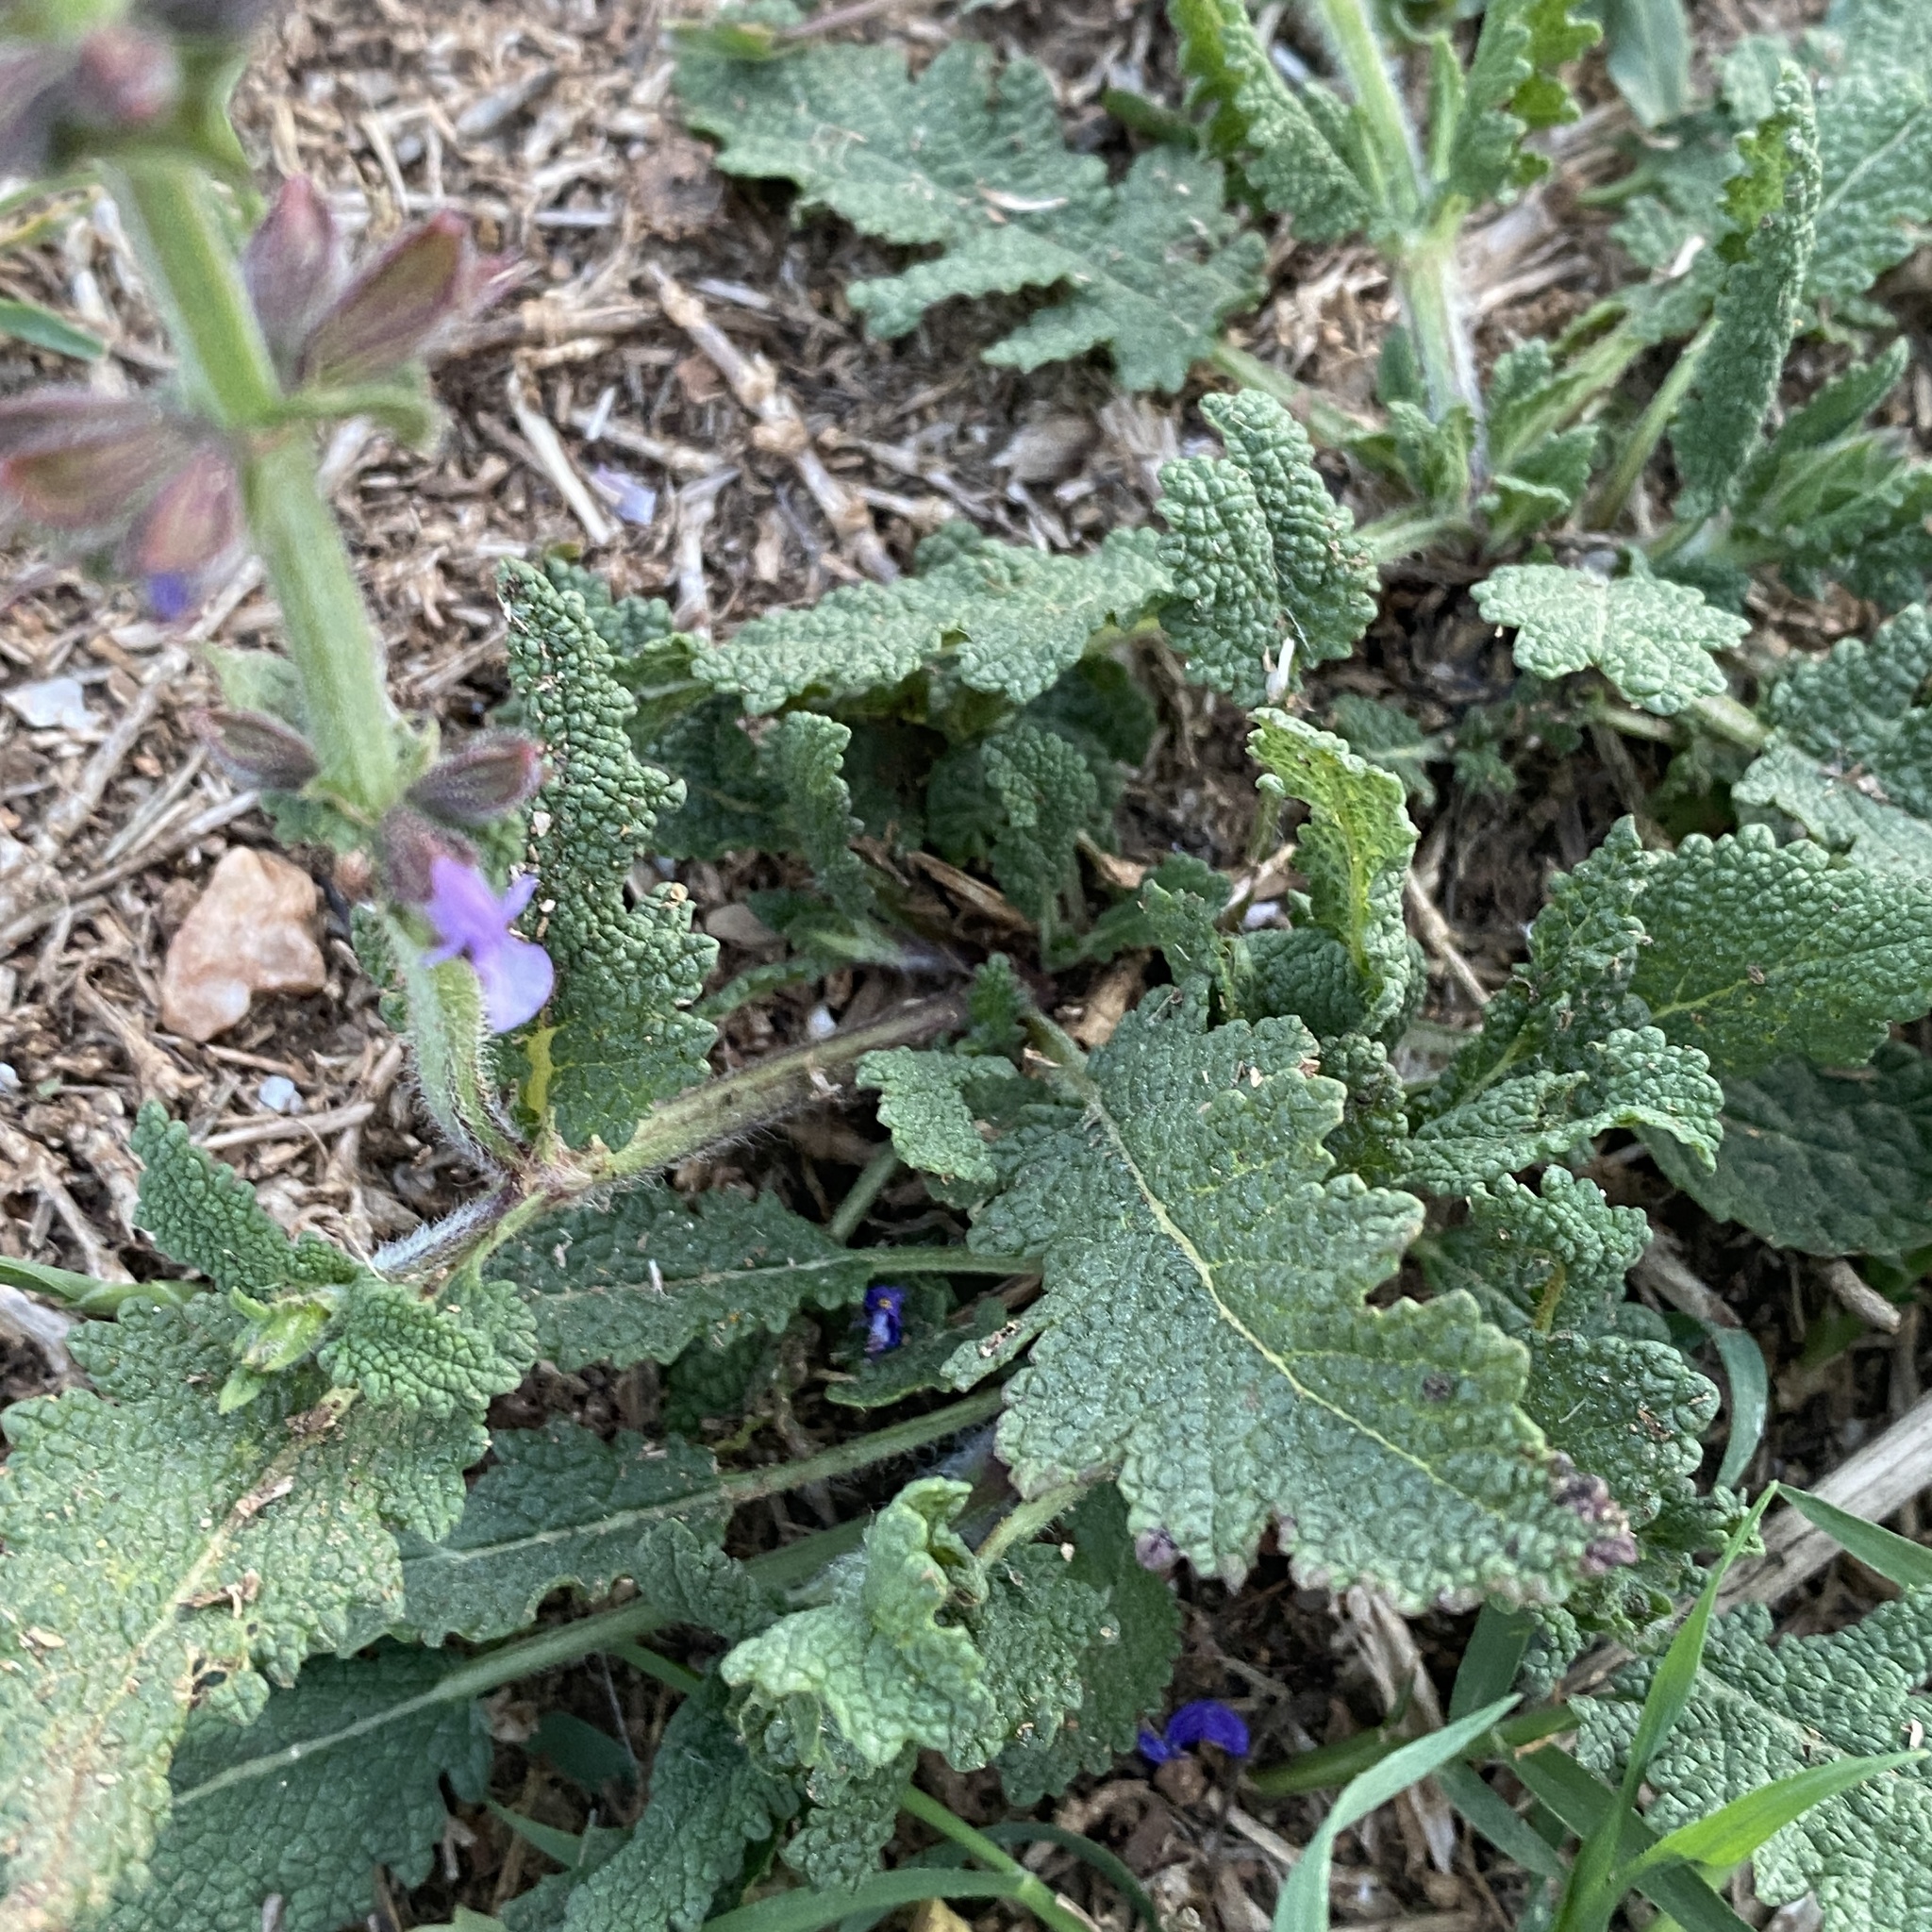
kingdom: Plantae
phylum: Tracheophyta
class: Magnoliopsida
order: Lamiales
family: Lamiaceae
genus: Salvia
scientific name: Salvia verbenaca
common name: Wild clary
